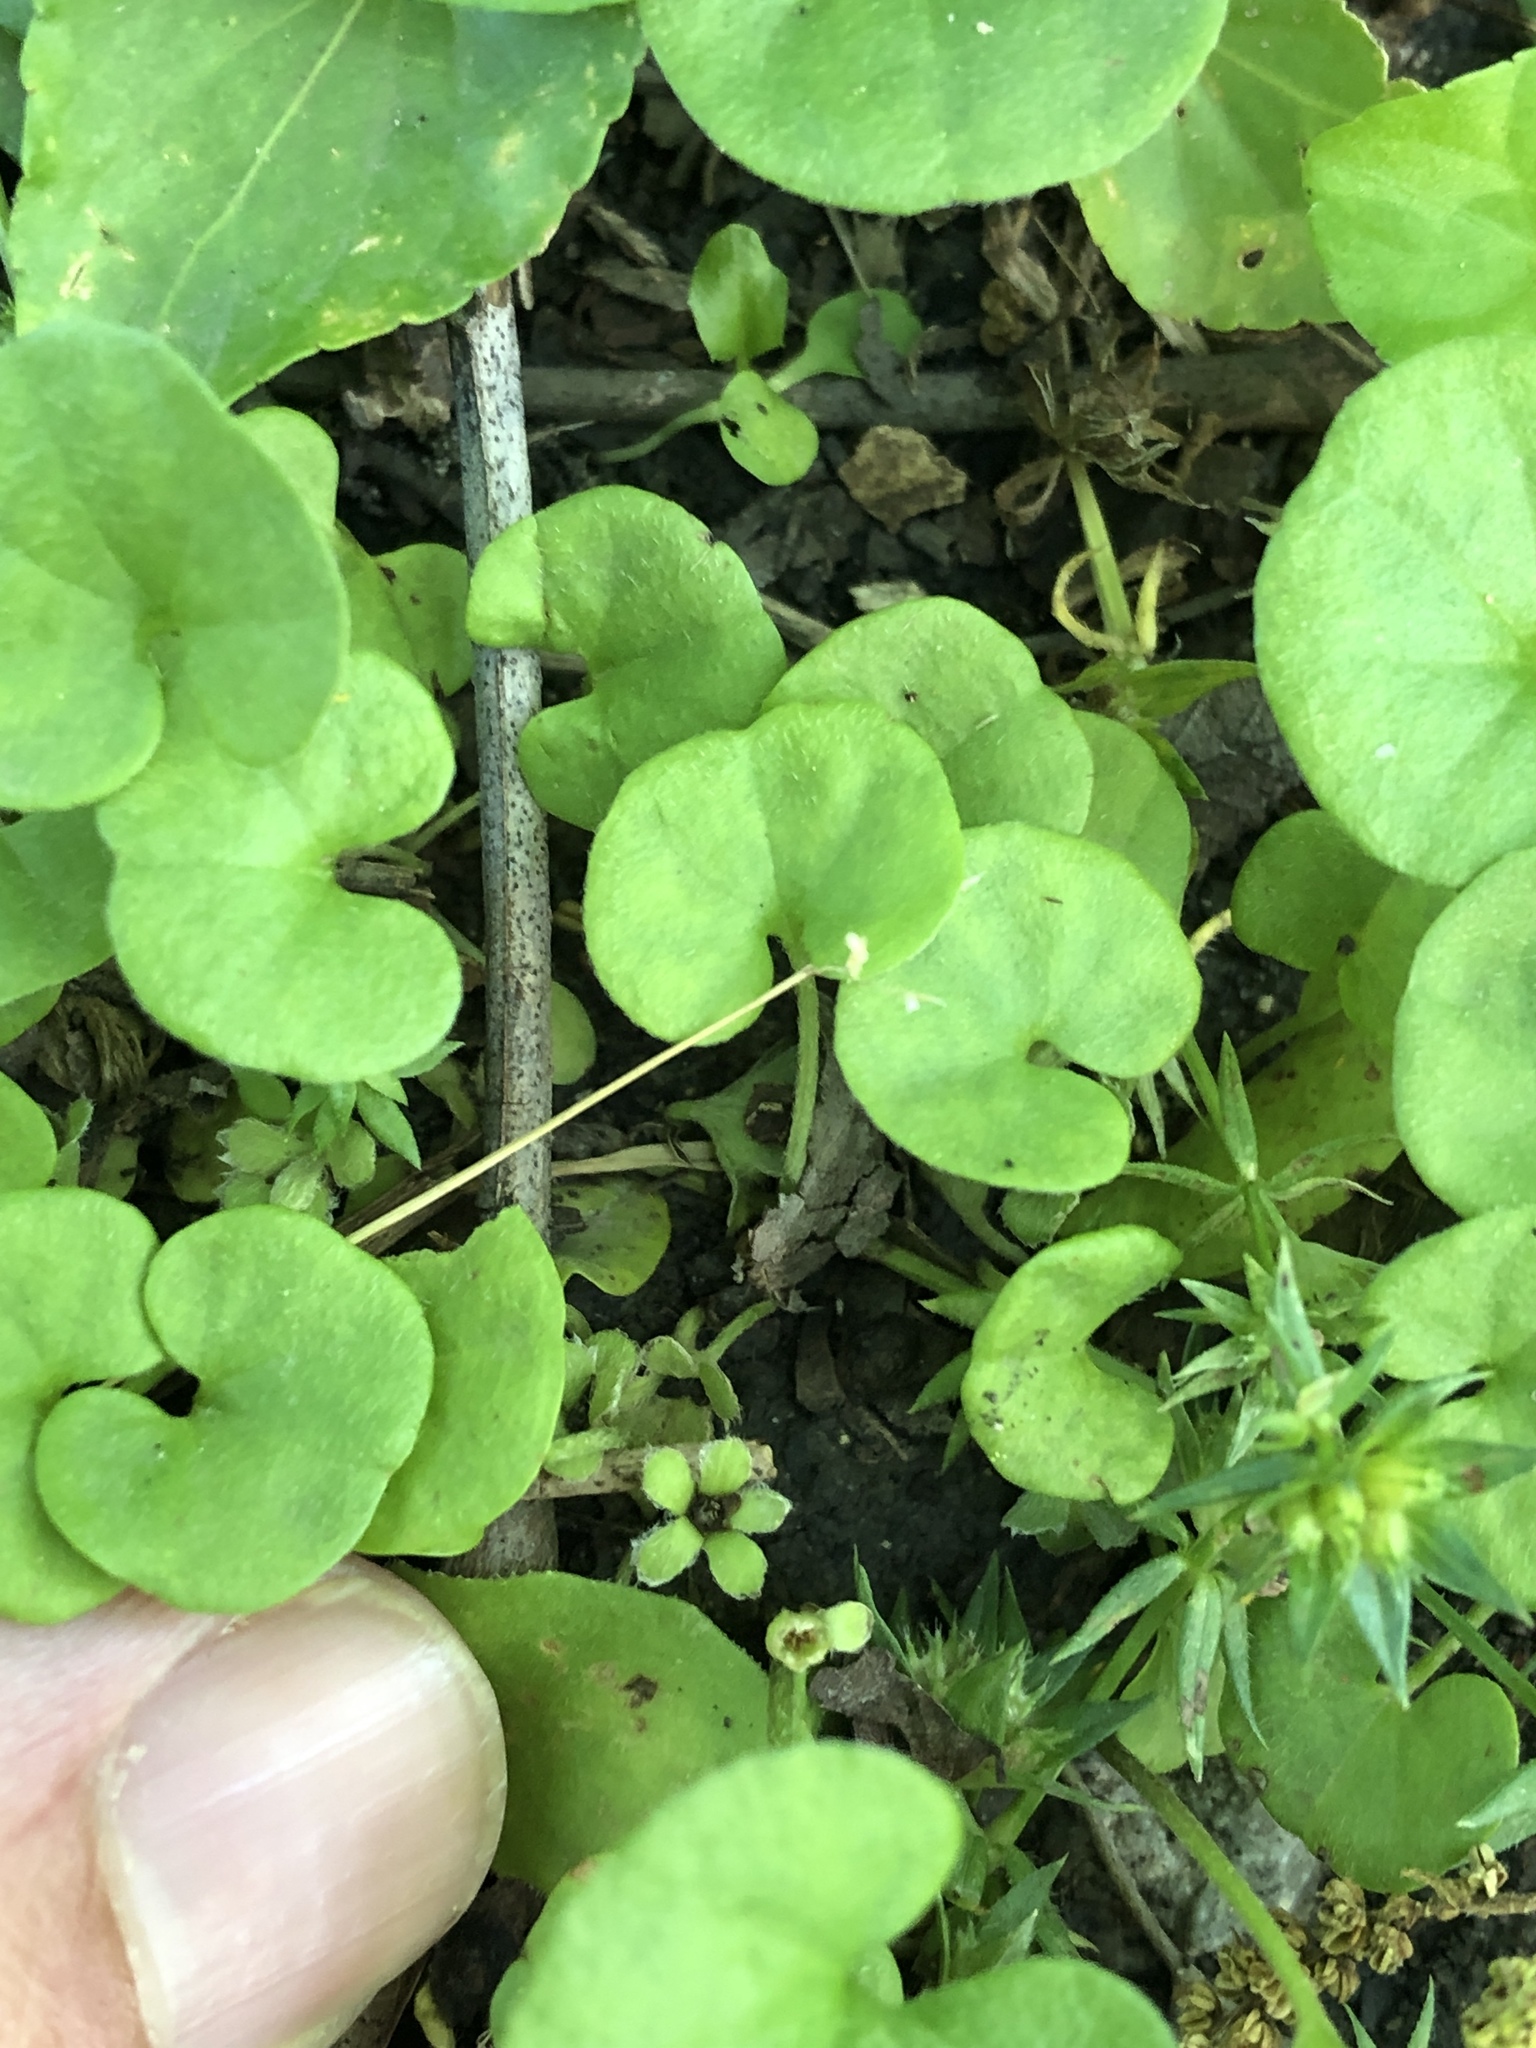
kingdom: Plantae
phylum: Tracheophyta
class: Magnoliopsida
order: Solanales
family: Convolvulaceae
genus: Dichondra
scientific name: Dichondra carolinensis
